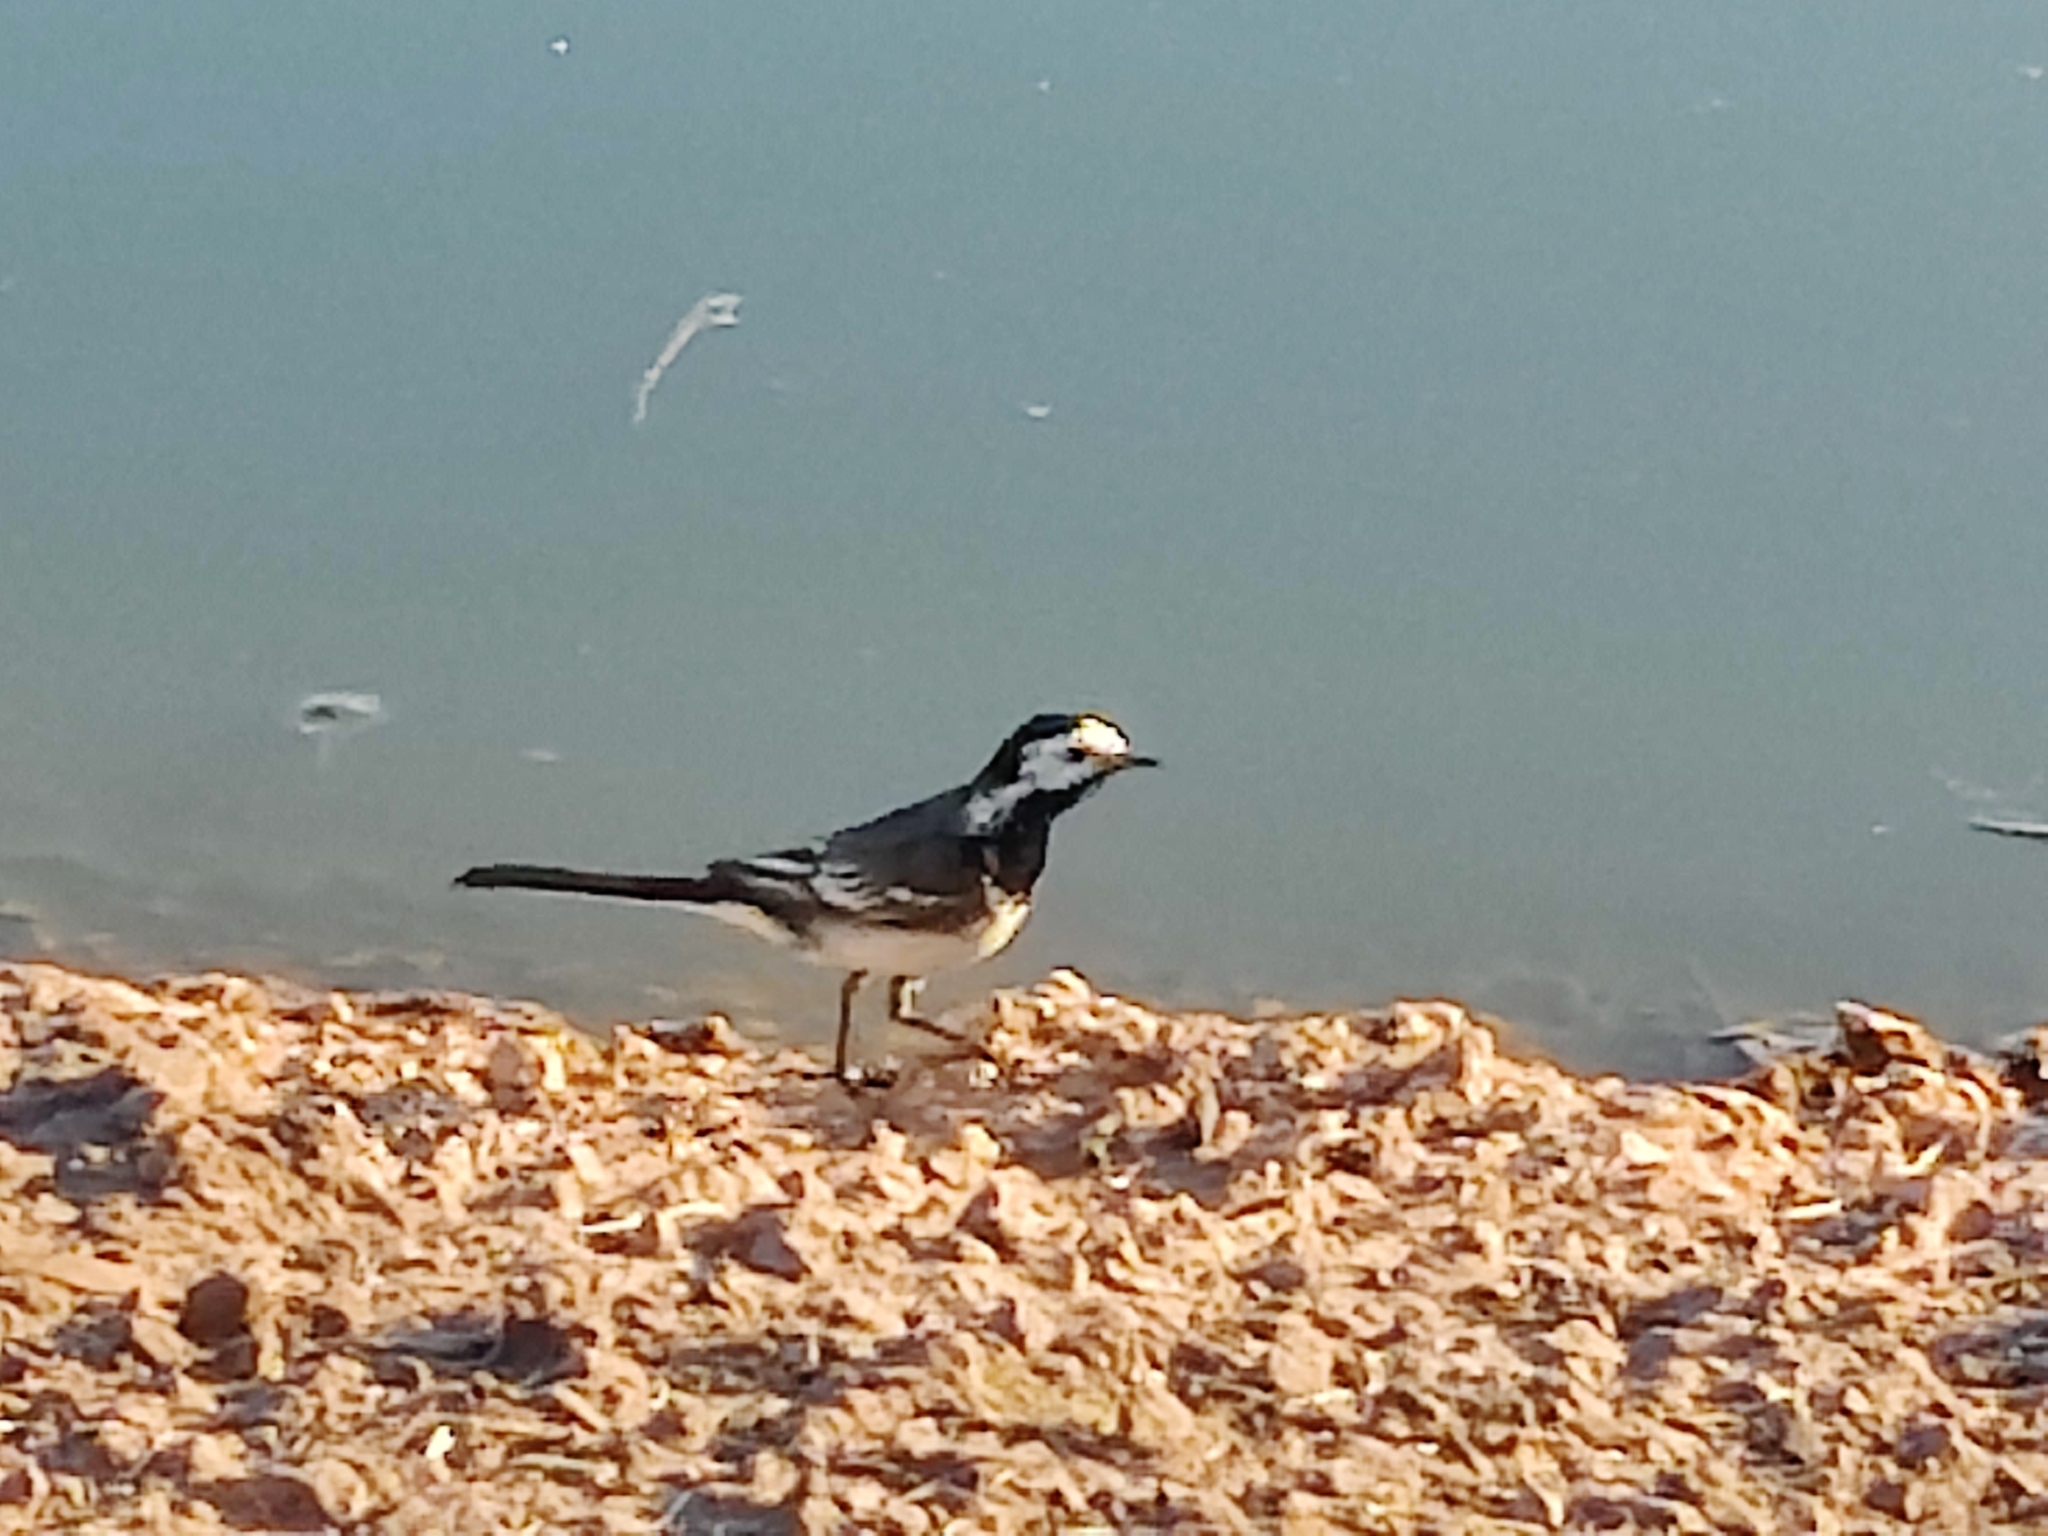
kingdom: Animalia
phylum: Chordata
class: Aves
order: Passeriformes
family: Motacillidae
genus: Motacilla
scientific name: Motacilla alba
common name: White wagtail
